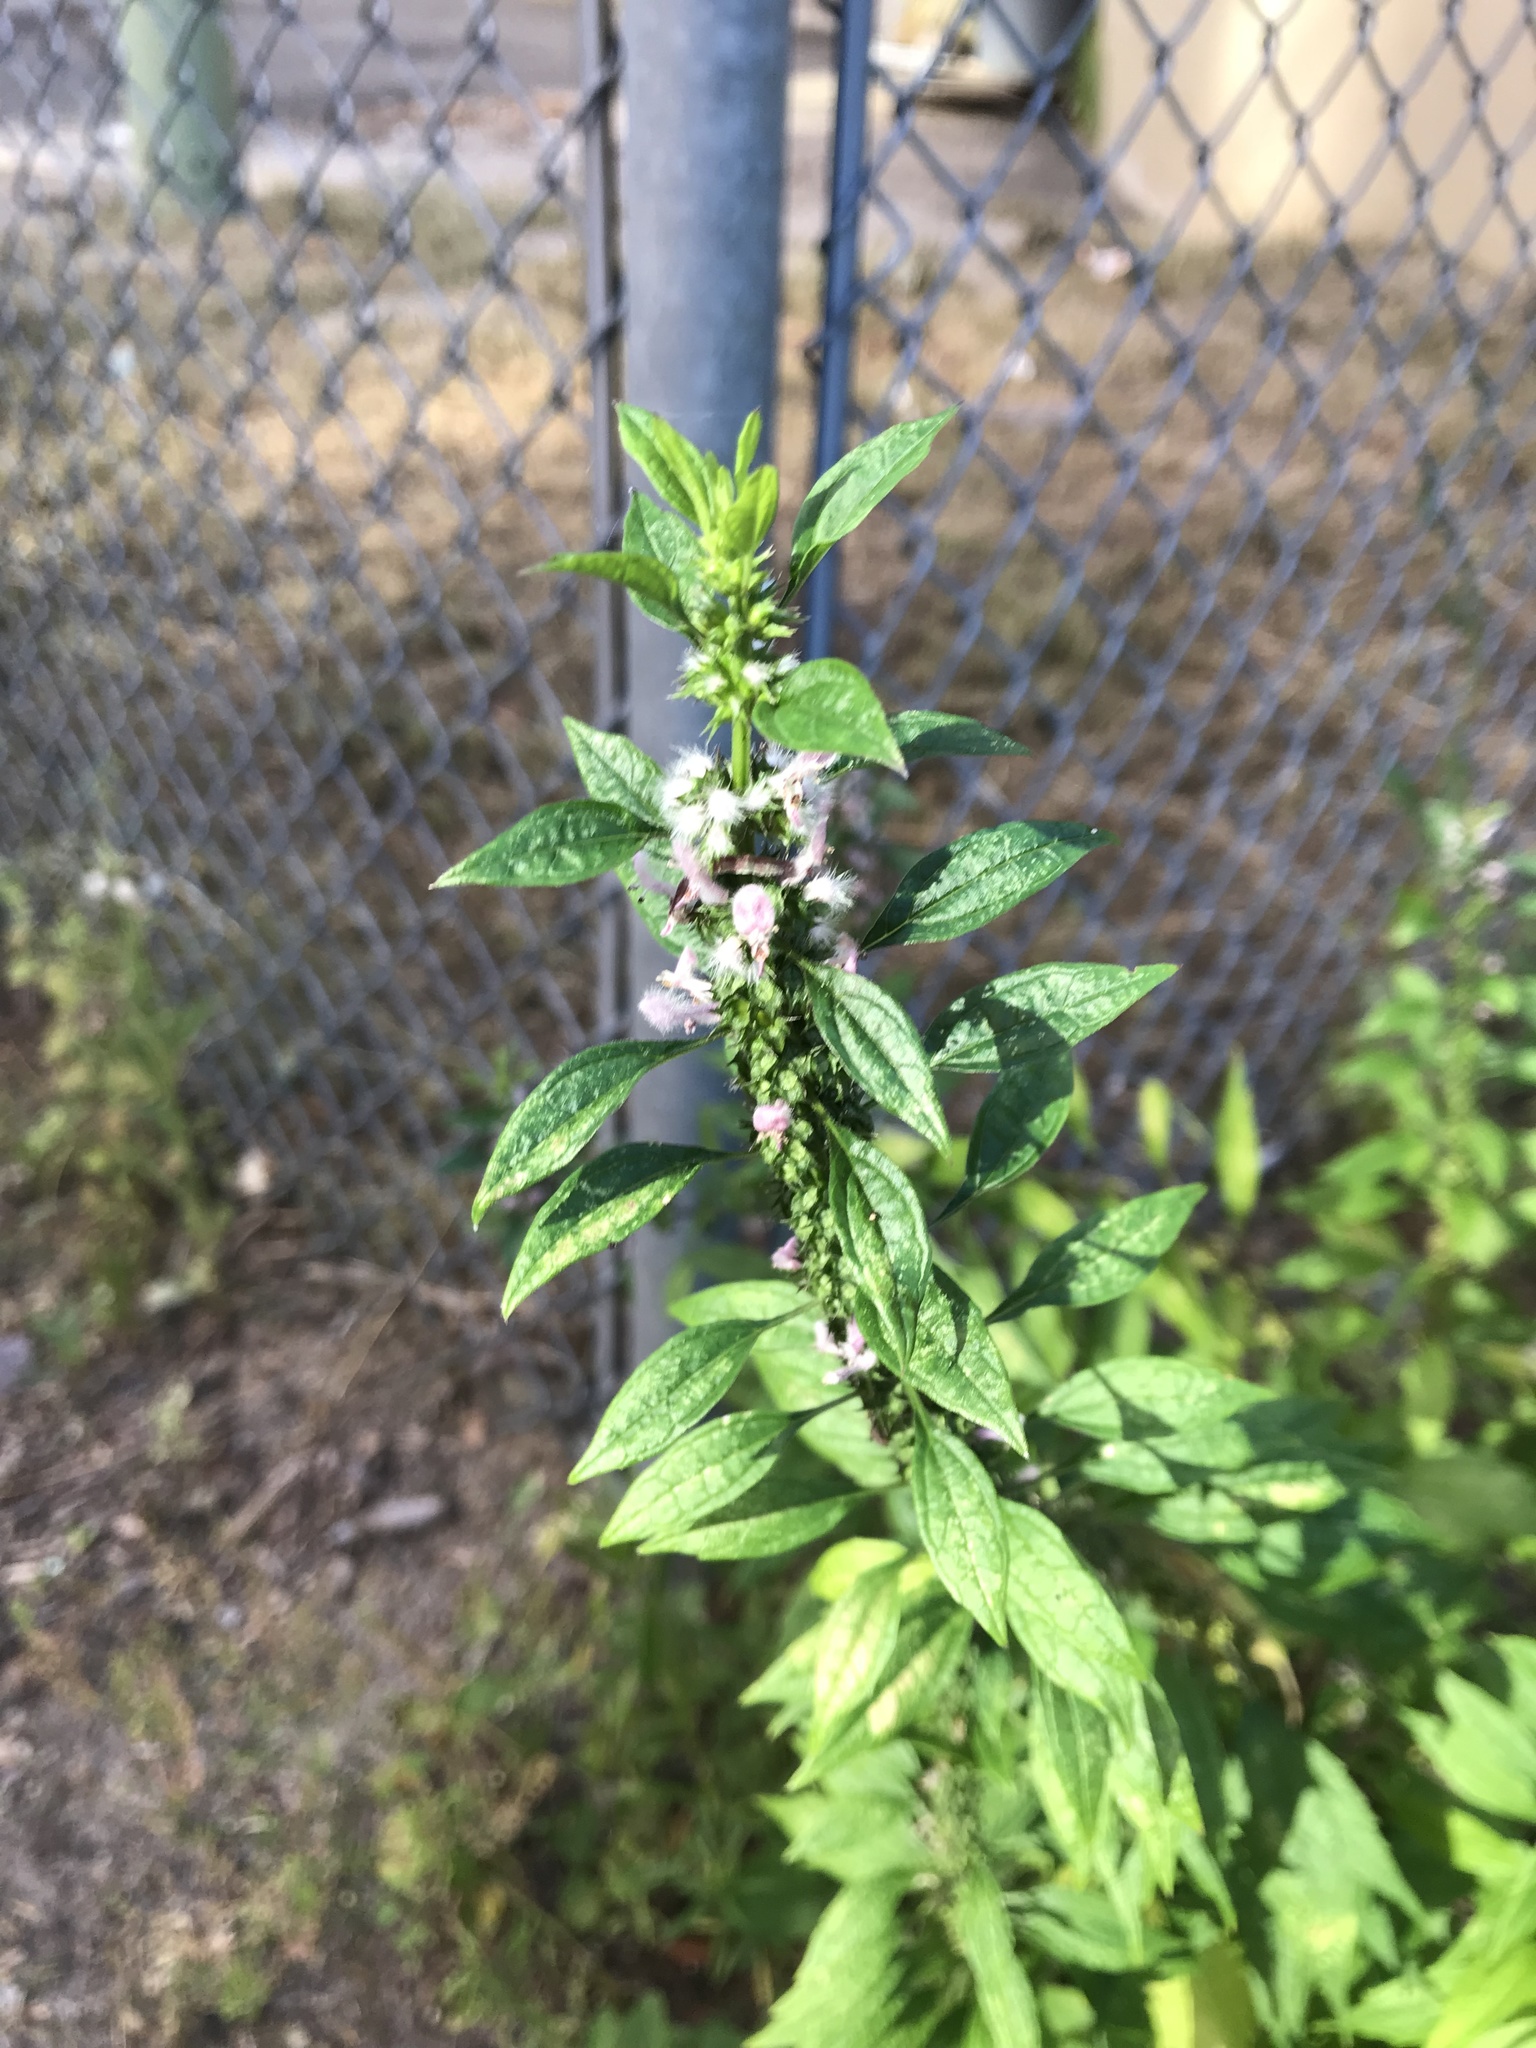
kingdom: Plantae
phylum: Tracheophyta
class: Magnoliopsida
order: Lamiales
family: Lamiaceae
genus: Leonurus
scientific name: Leonurus cardiaca
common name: Motherwort
